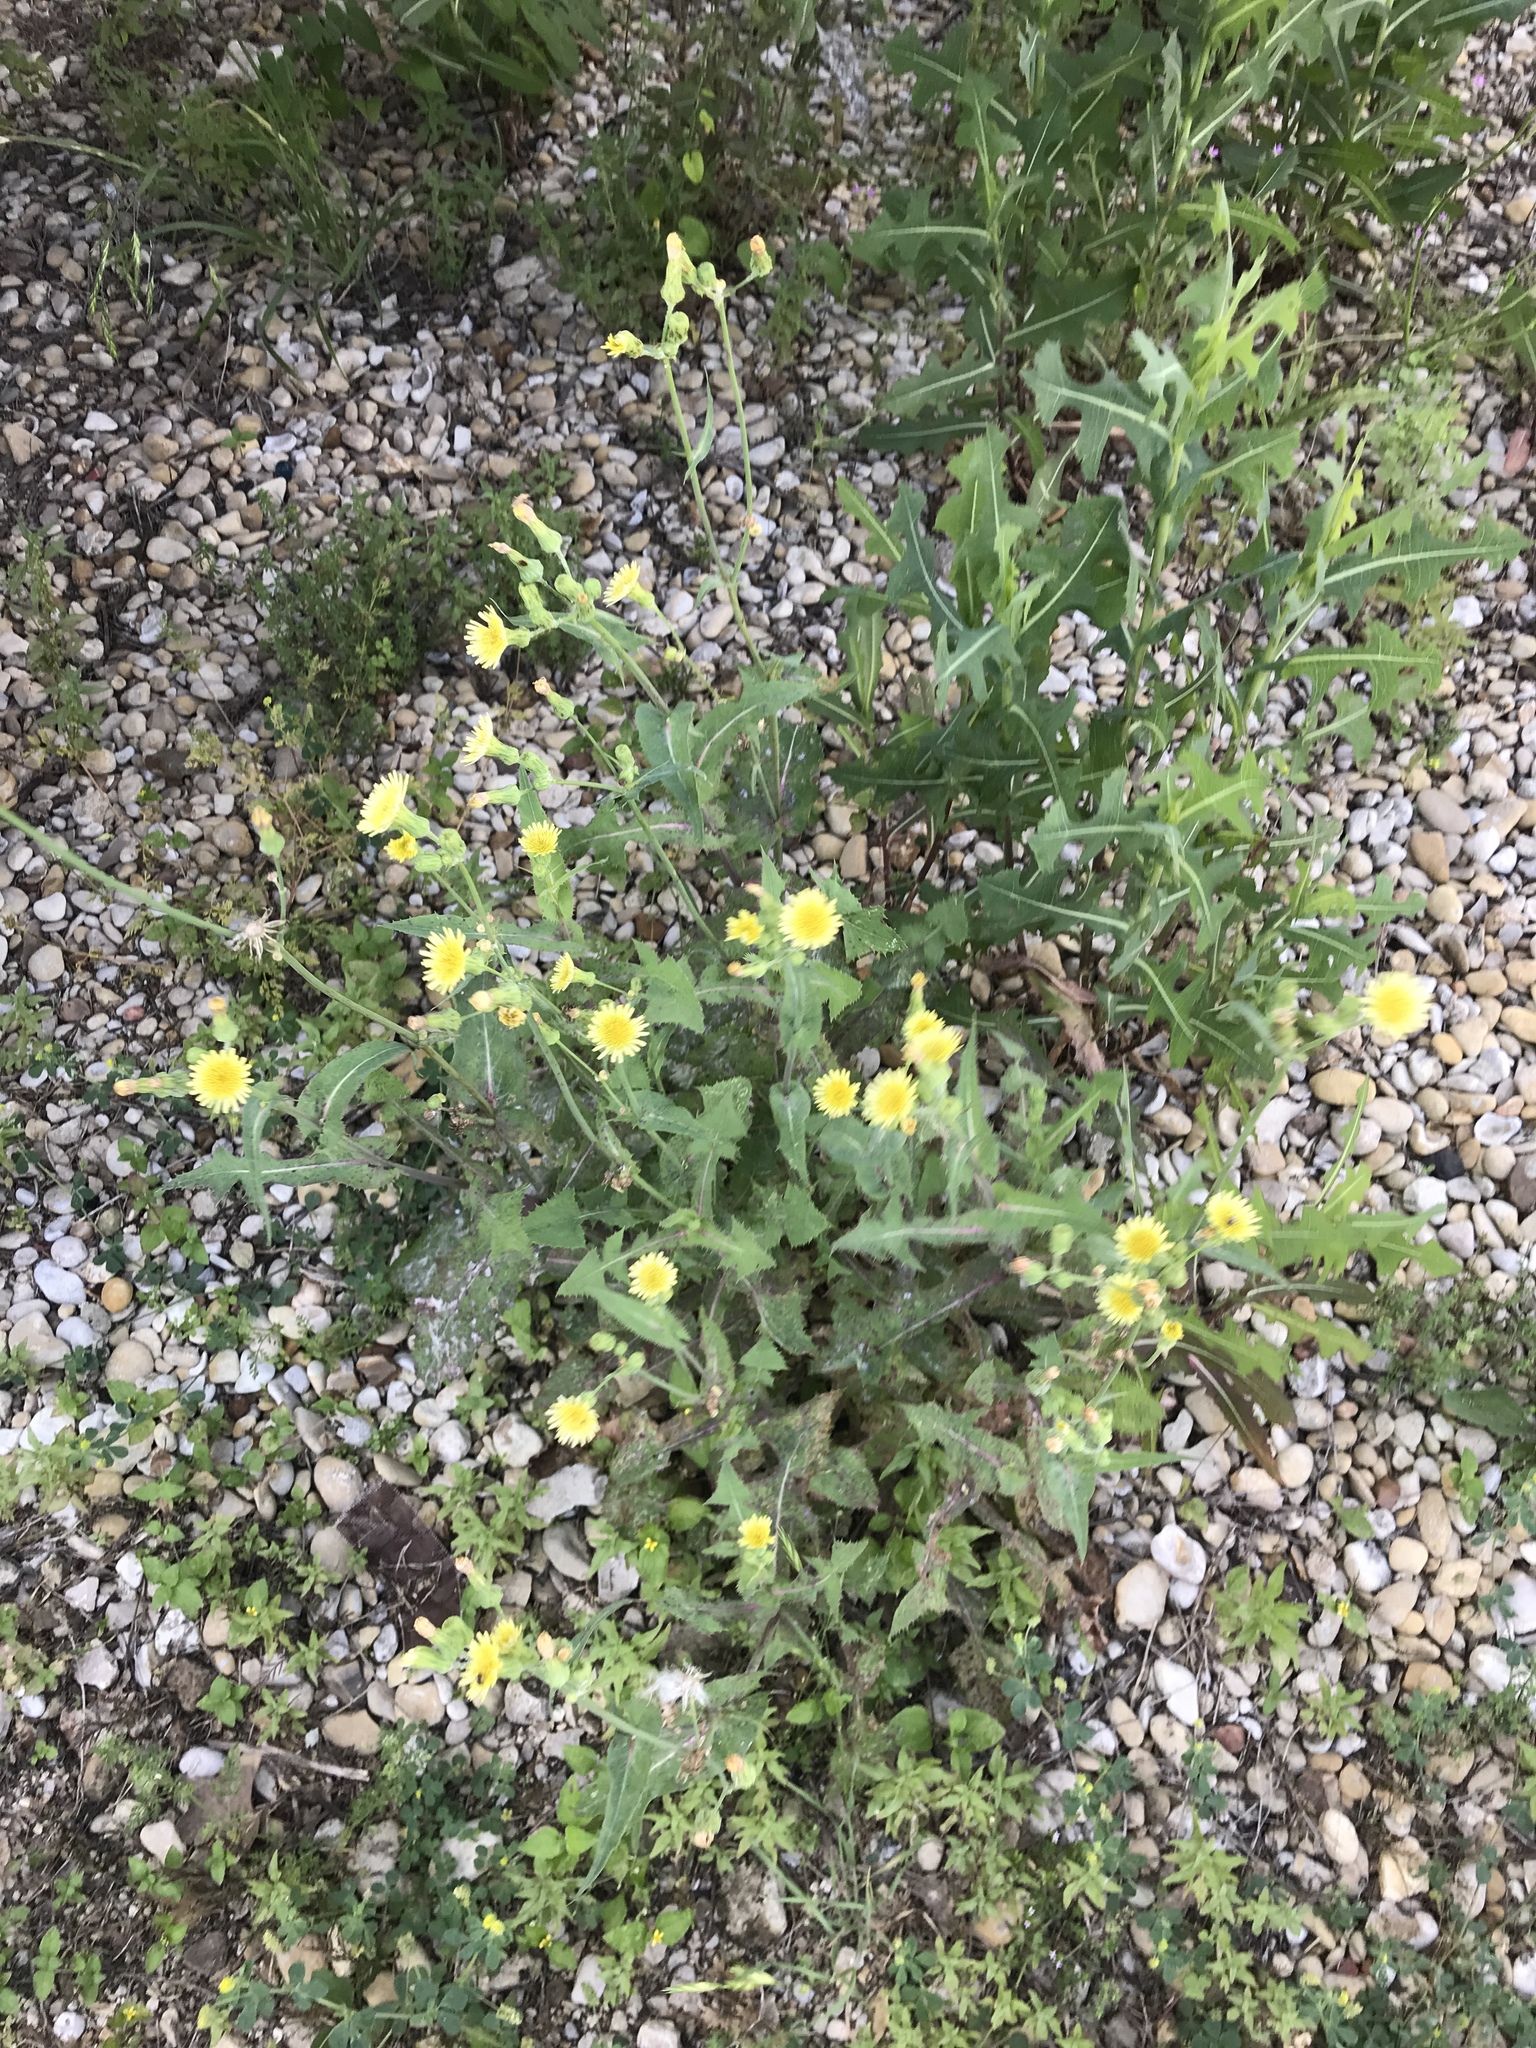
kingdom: Plantae
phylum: Tracheophyta
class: Magnoliopsida
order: Asterales
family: Asteraceae
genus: Sonchus
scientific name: Sonchus oleraceus
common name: Common sowthistle
